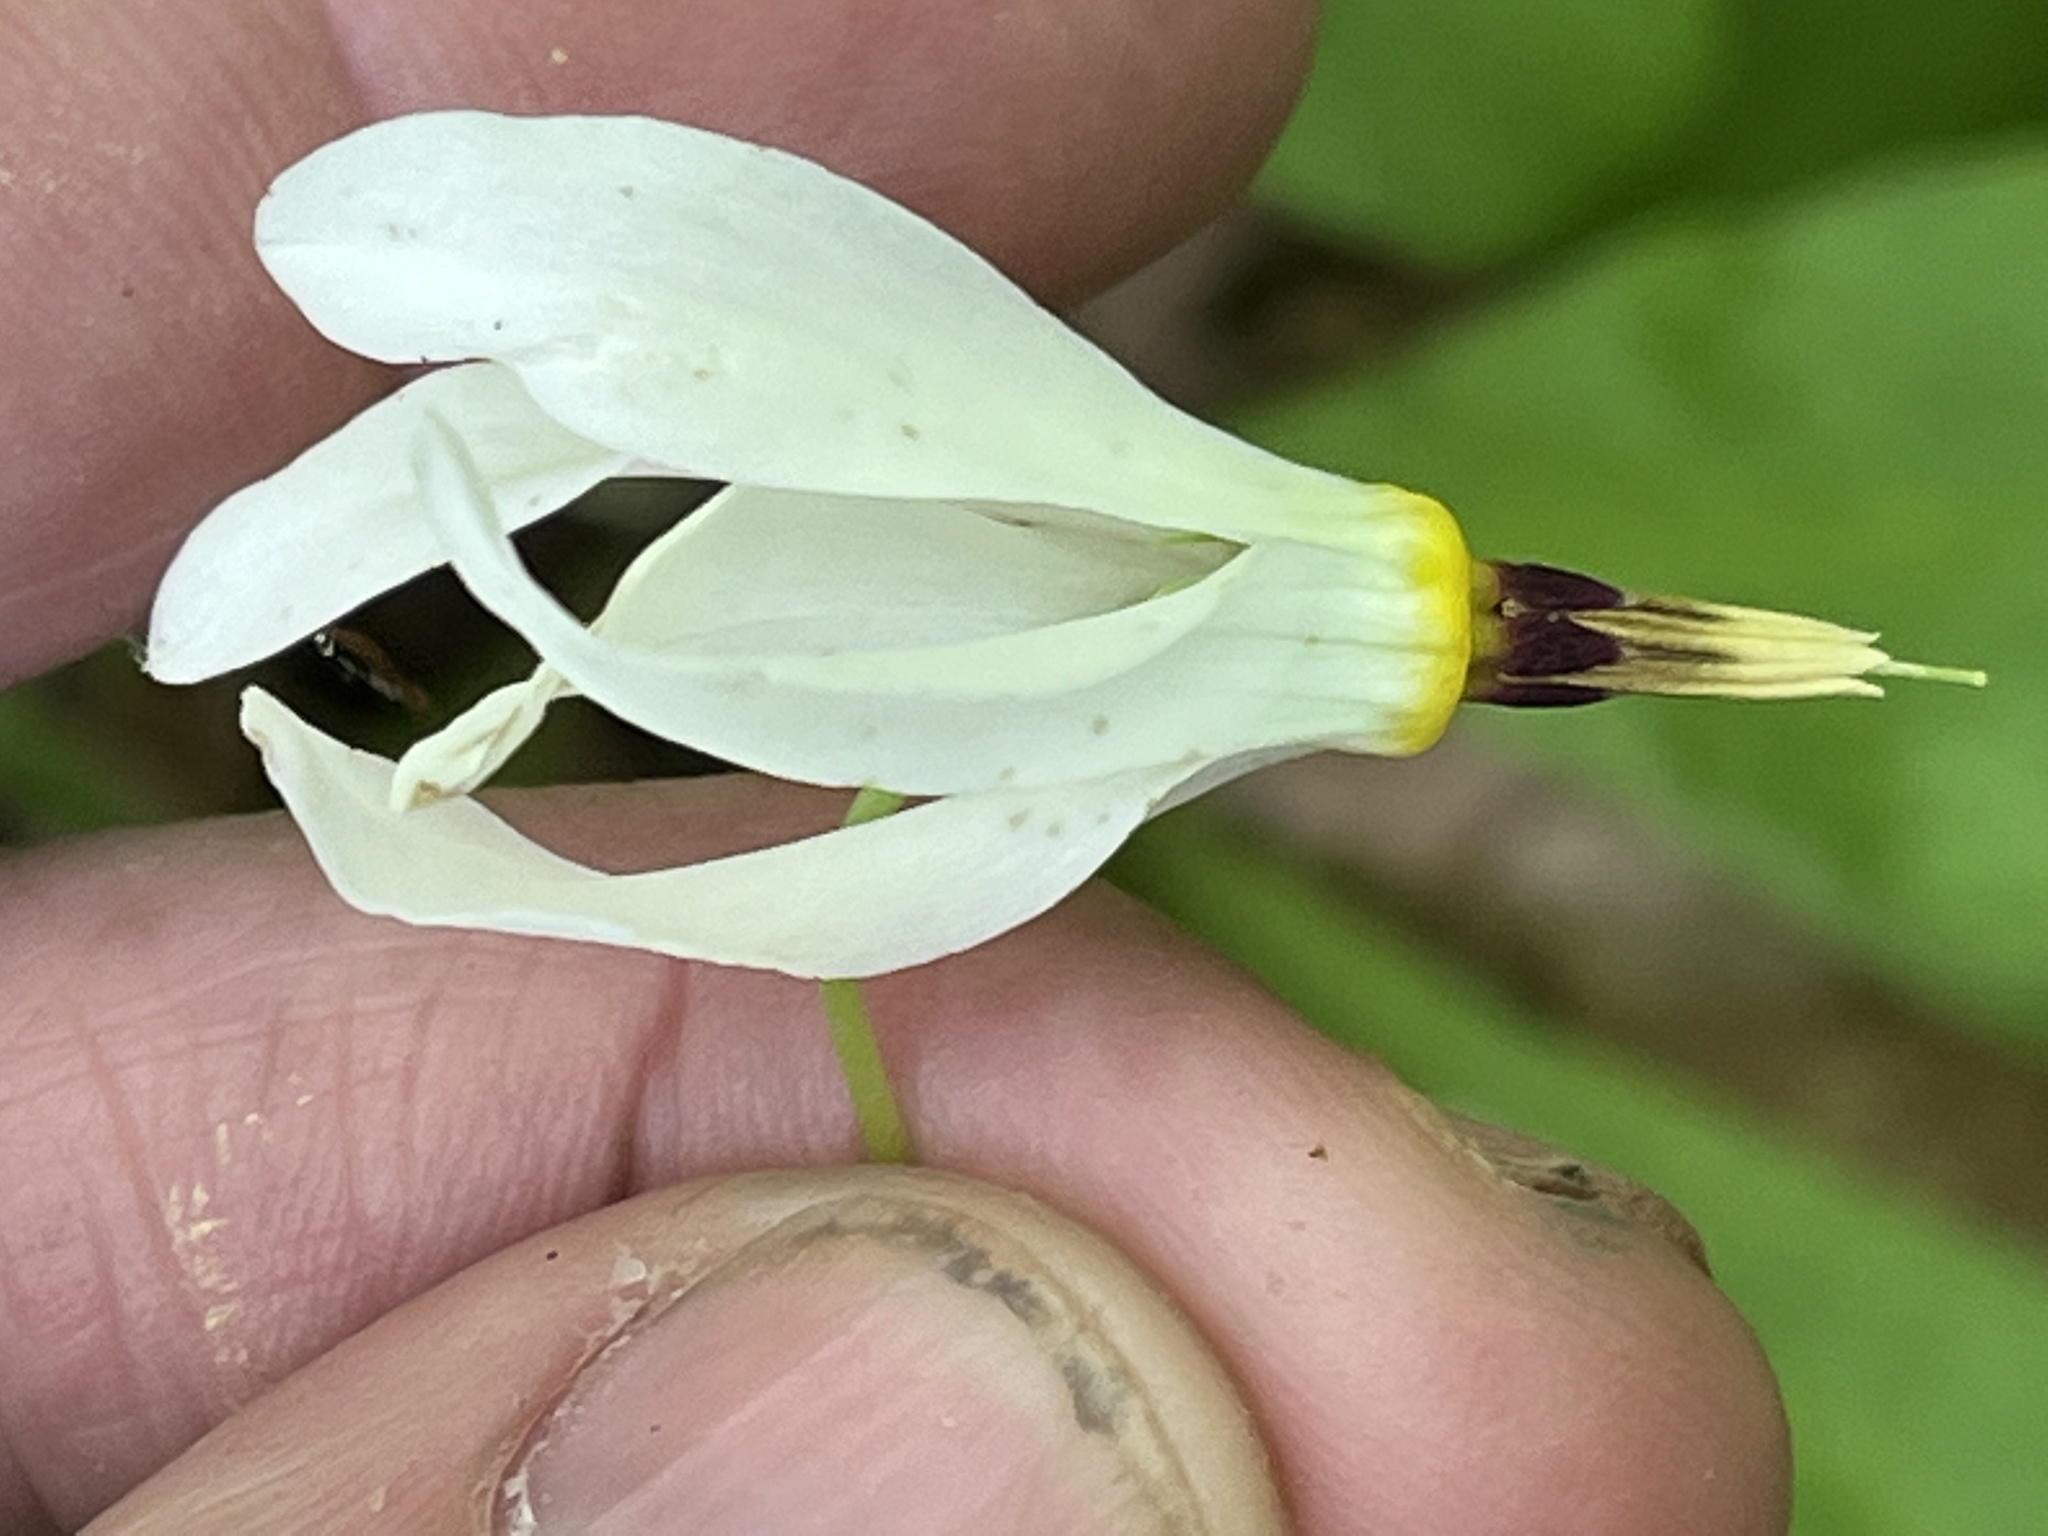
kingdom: Plantae
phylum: Tracheophyta
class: Magnoliopsida
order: Ericales
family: Primulaceae
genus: Dodecatheon
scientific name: Dodecatheon meadia
